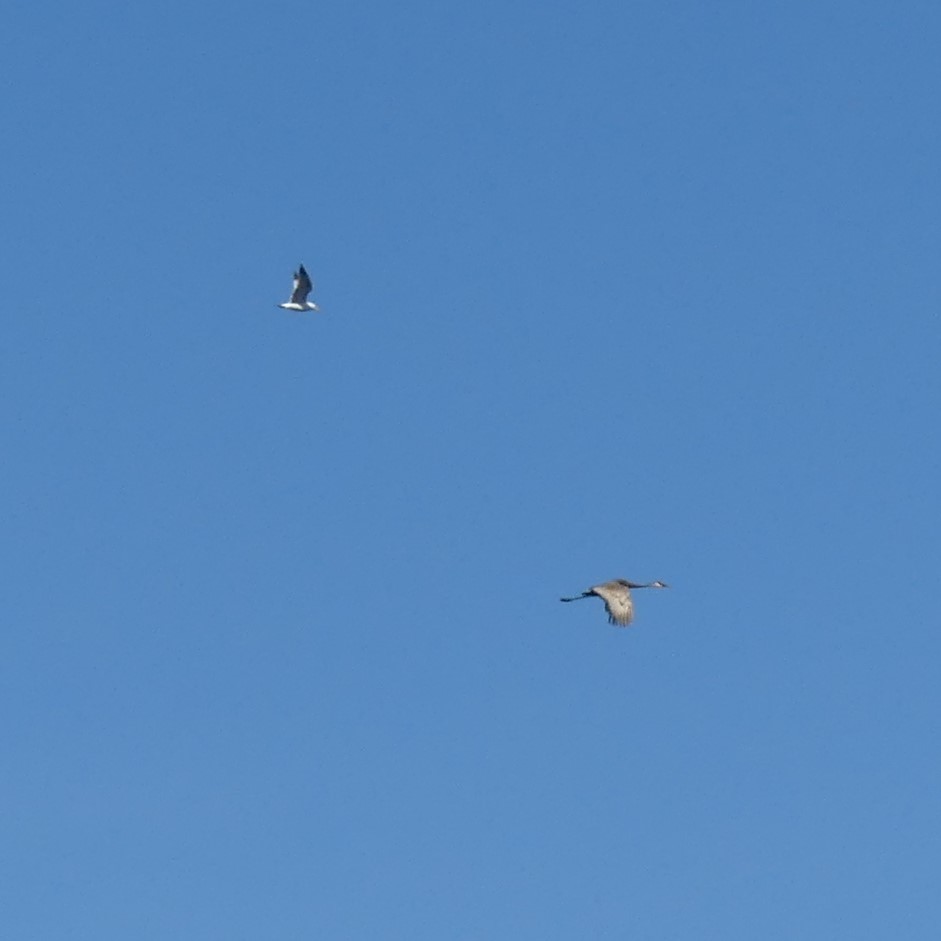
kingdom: Animalia
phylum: Chordata
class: Aves
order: Gruiformes
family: Gruidae
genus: Grus
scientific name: Grus canadensis
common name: Sandhill crane
